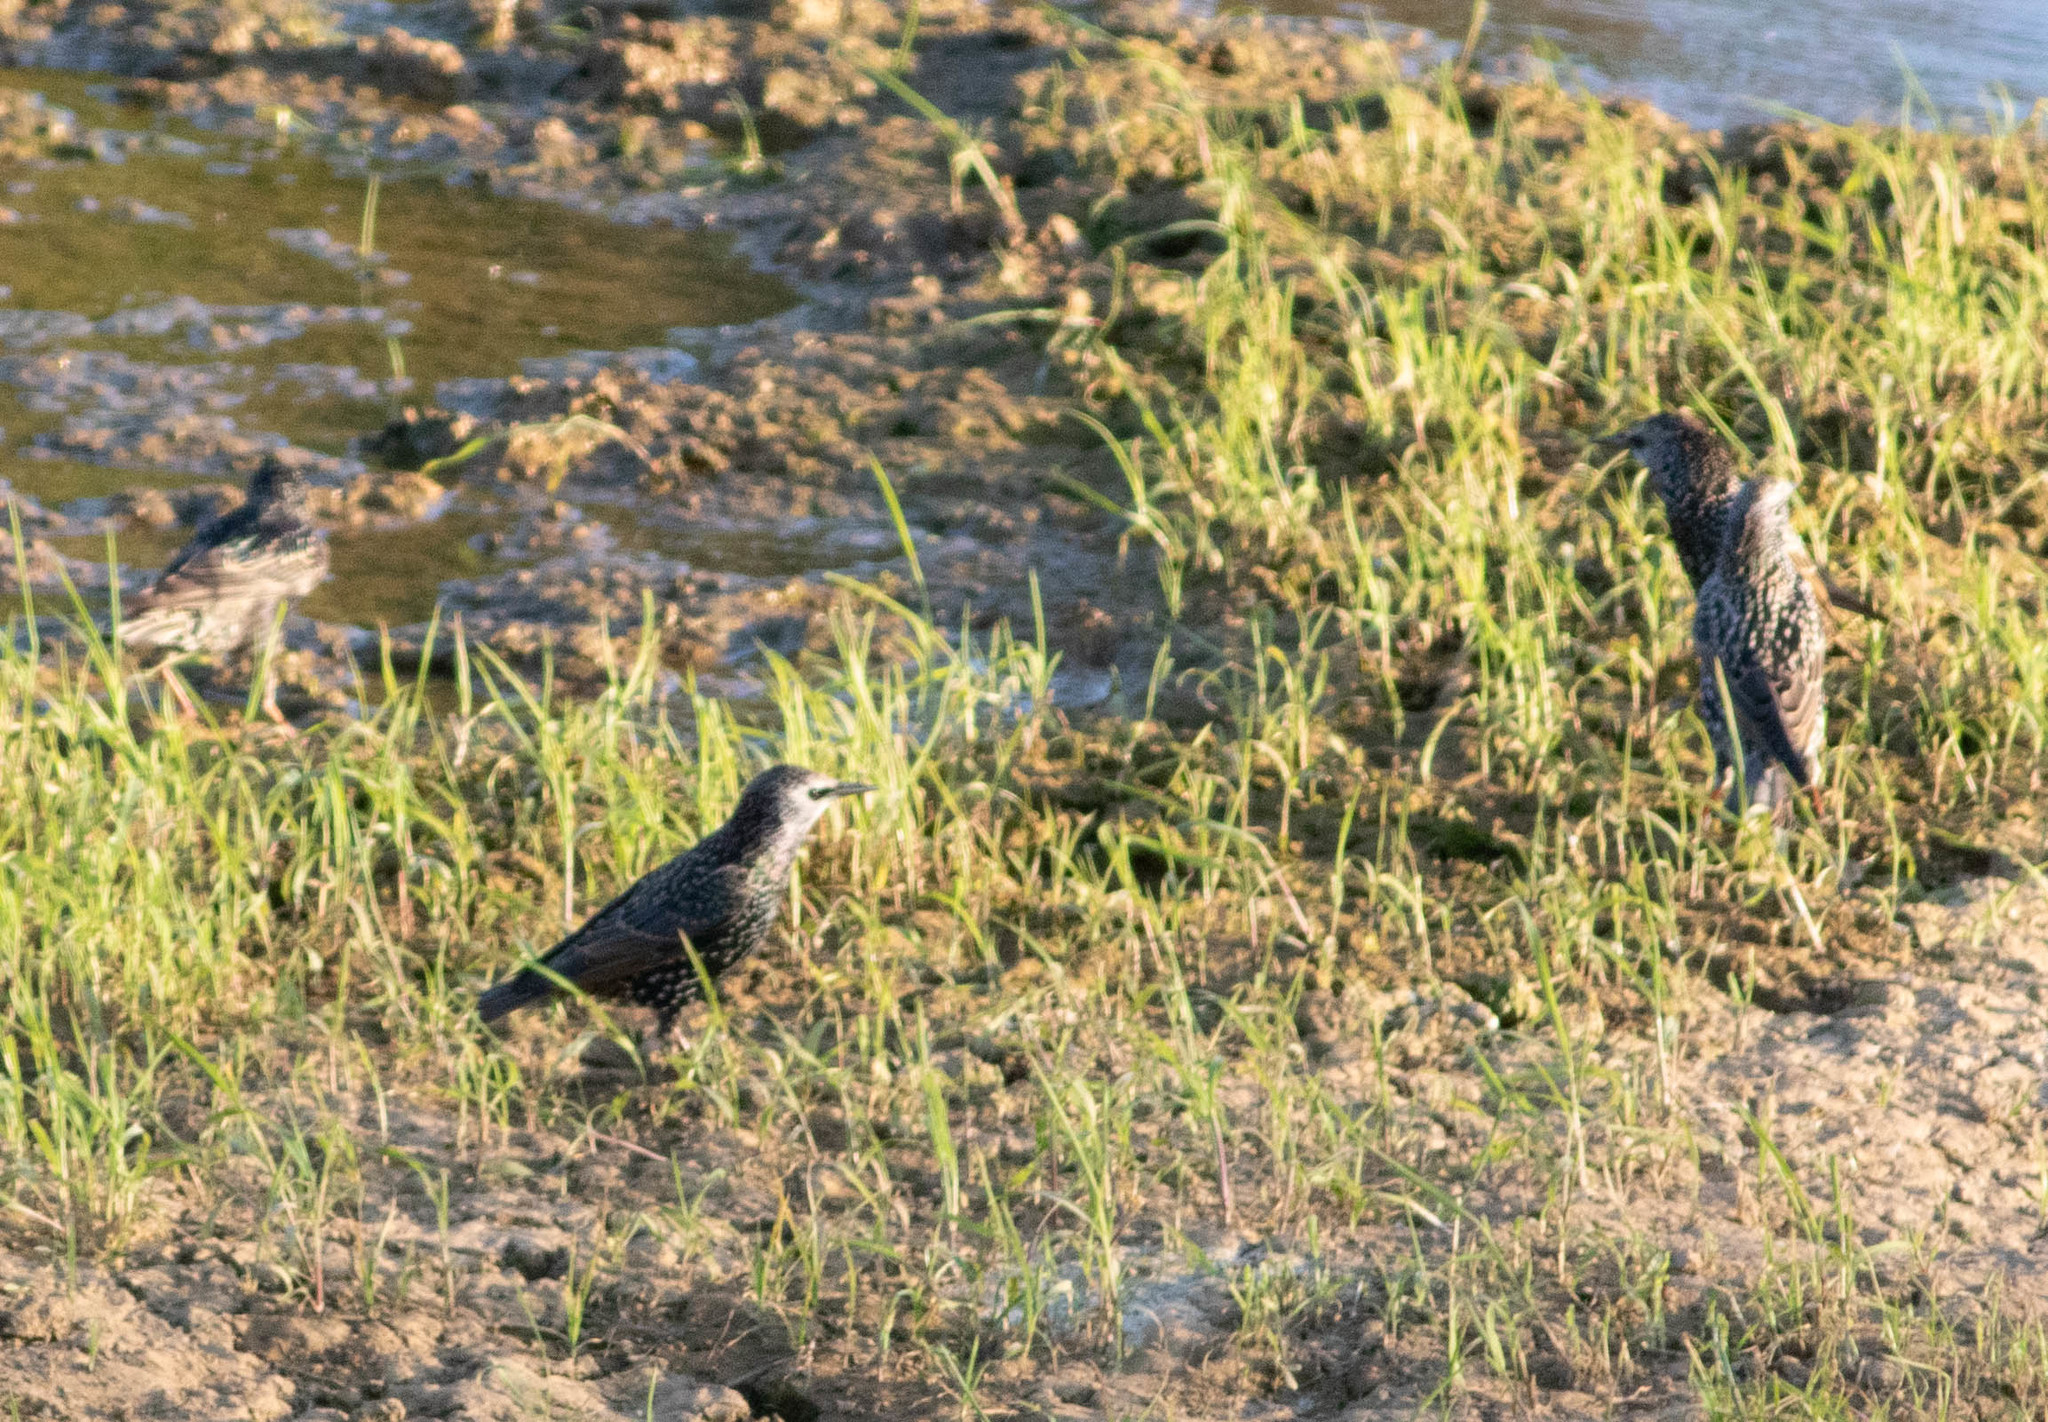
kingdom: Animalia
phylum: Chordata
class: Aves
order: Passeriformes
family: Sturnidae
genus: Sturnus
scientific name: Sturnus vulgaris
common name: Common starling
